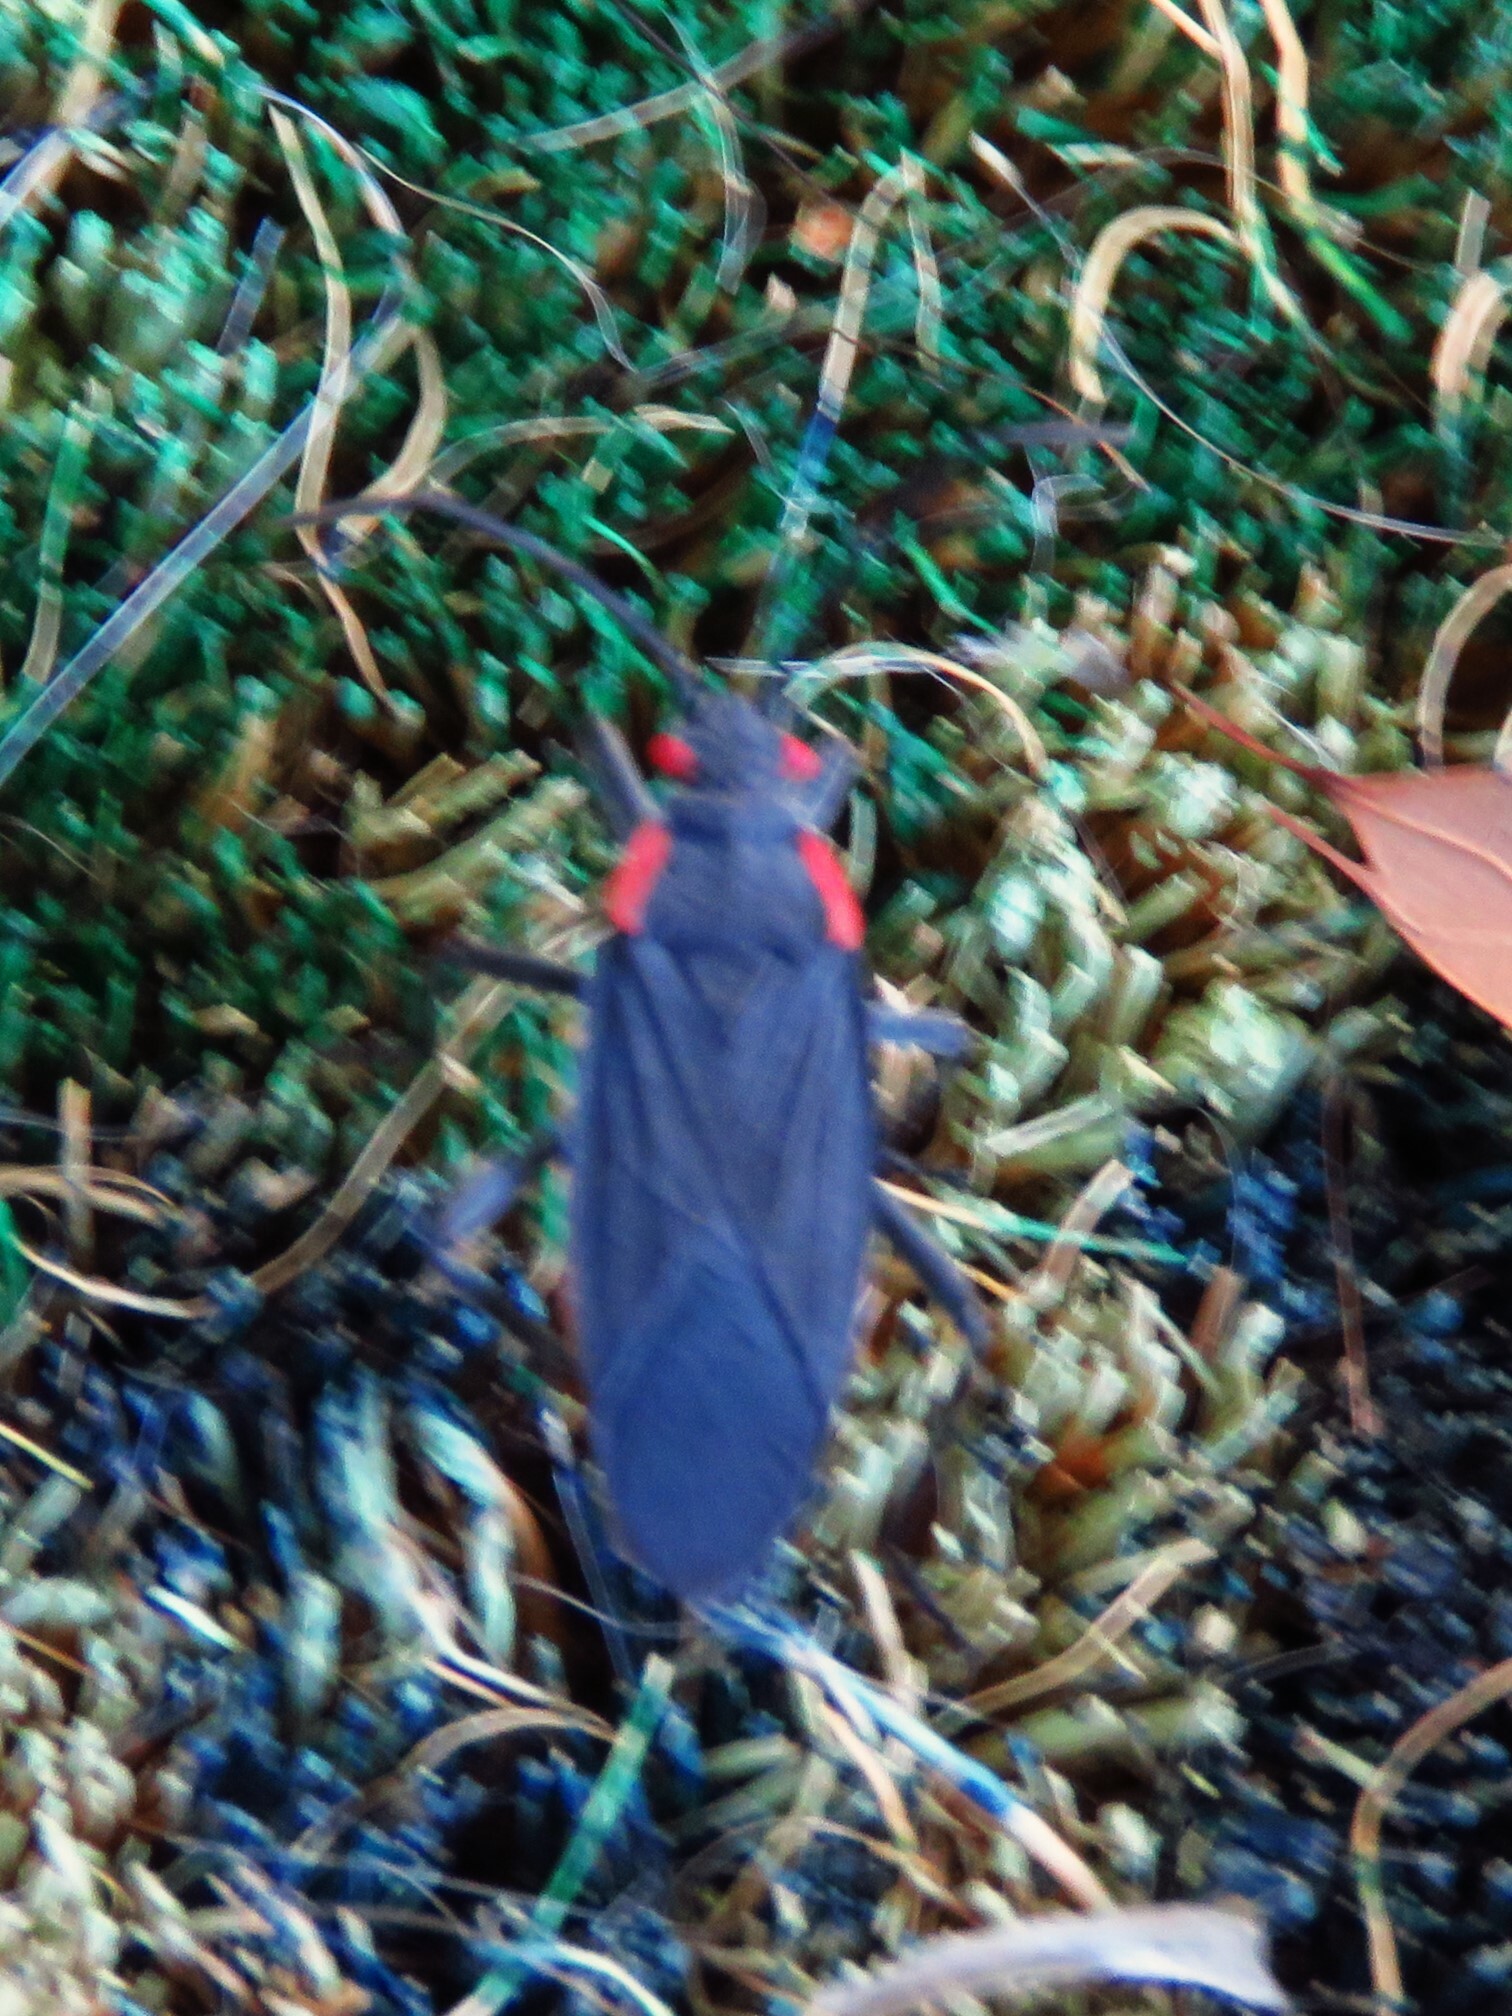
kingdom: Animalia
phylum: Arthropoda
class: Insecta
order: Hemiptera
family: Rhopalidae
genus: Jadera
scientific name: Jadera haematoloma
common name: Red-shouldered bug
